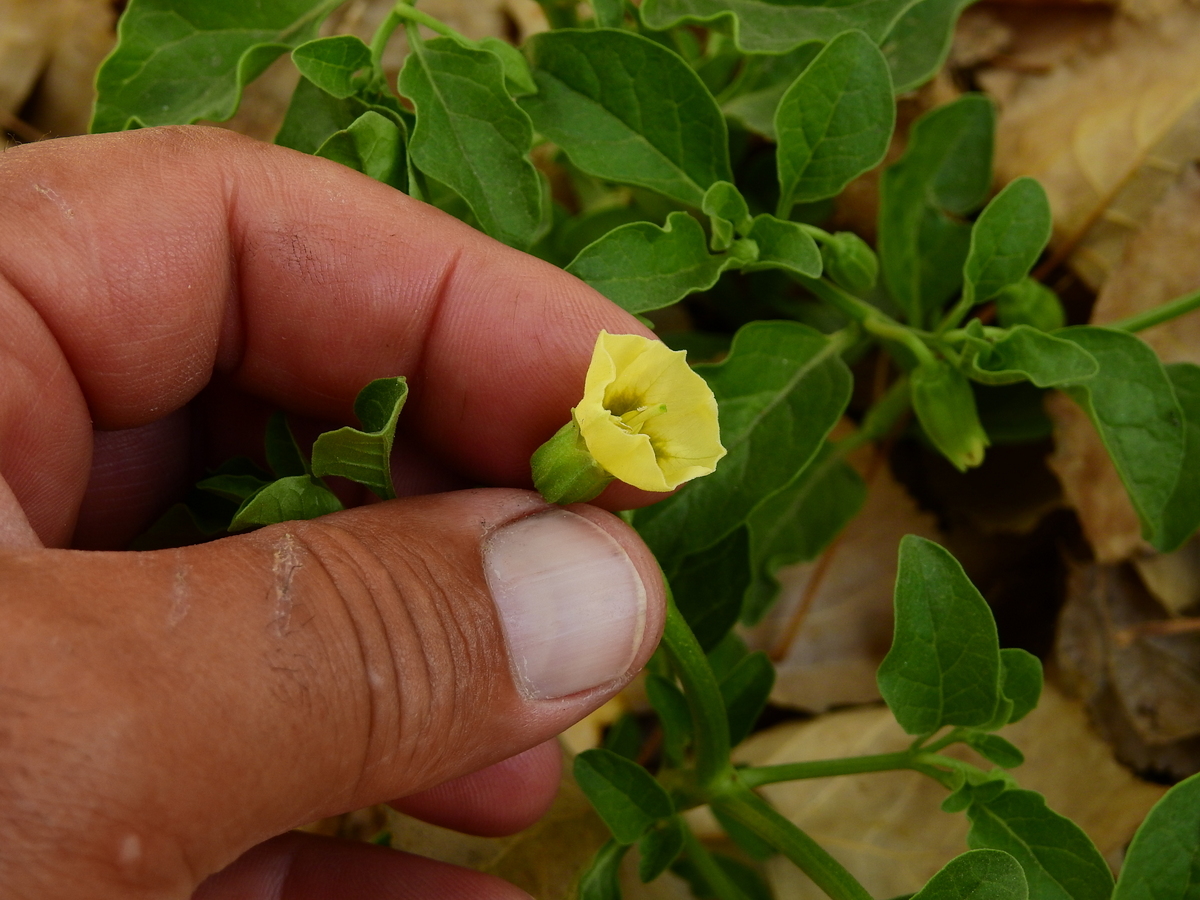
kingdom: Plantae
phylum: Tracheophyta
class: Magnoliopsida
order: Solanales
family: Solanaceae
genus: Physalis
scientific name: Physalis viscosa
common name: Stellate ground-cherry
